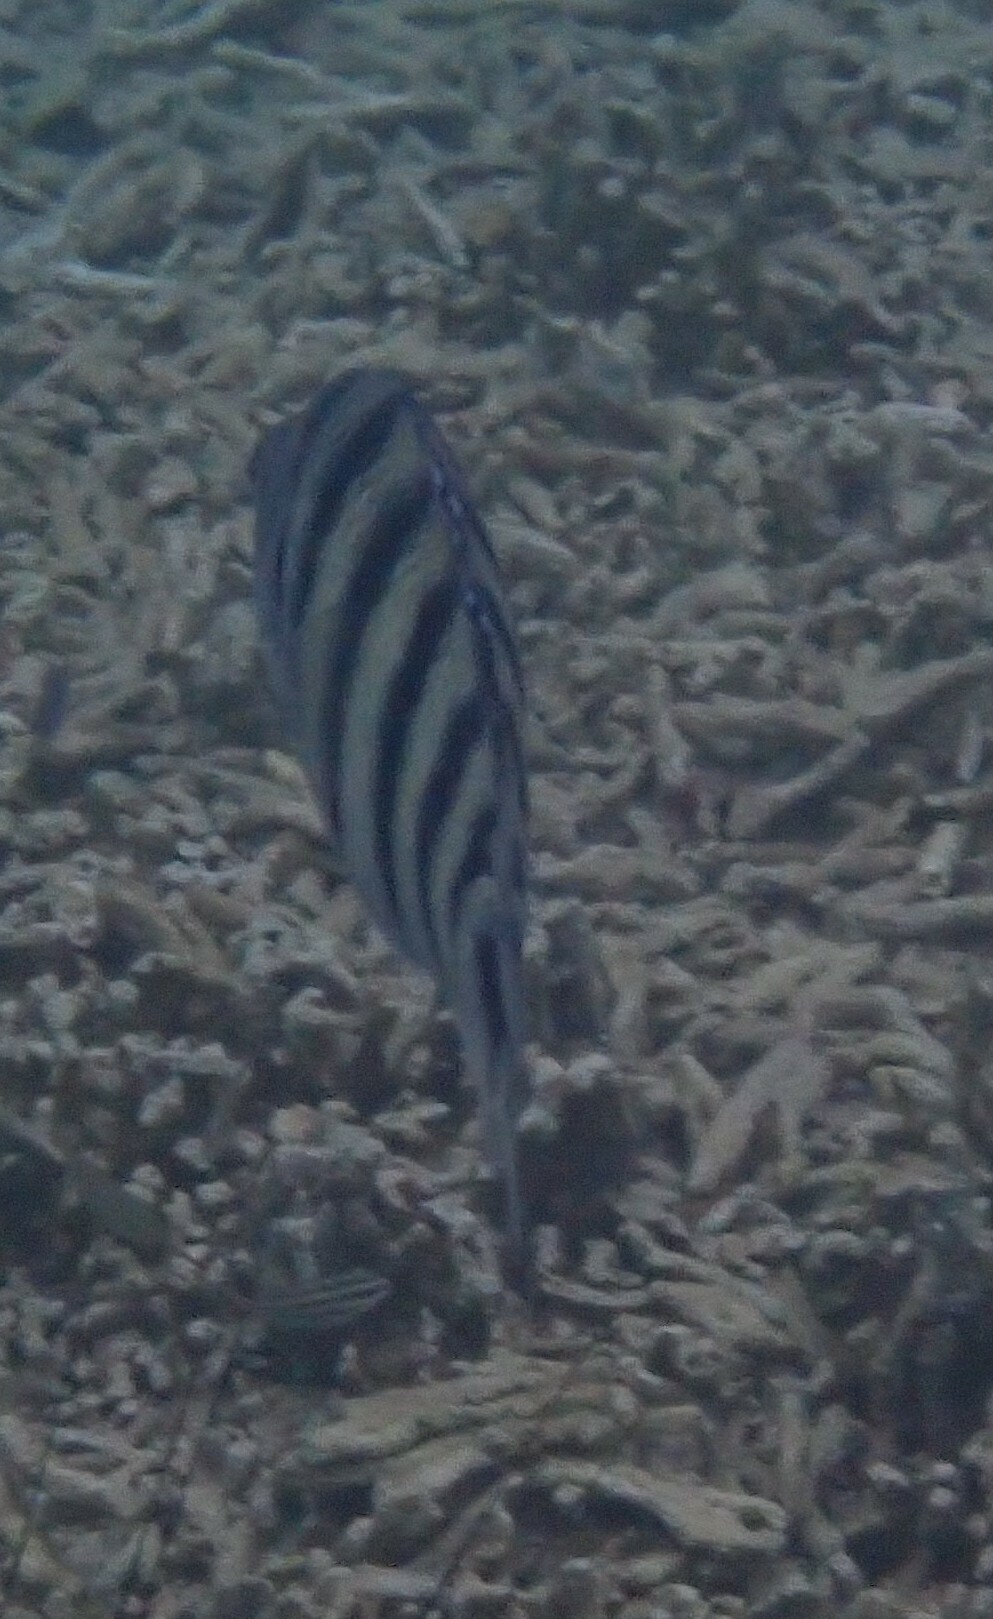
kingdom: Animalia
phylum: Chordata
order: Perciformes
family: Pomacentridae
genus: Abudefduf
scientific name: Abudefduf lorenzi
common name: Black-tail sergeant
